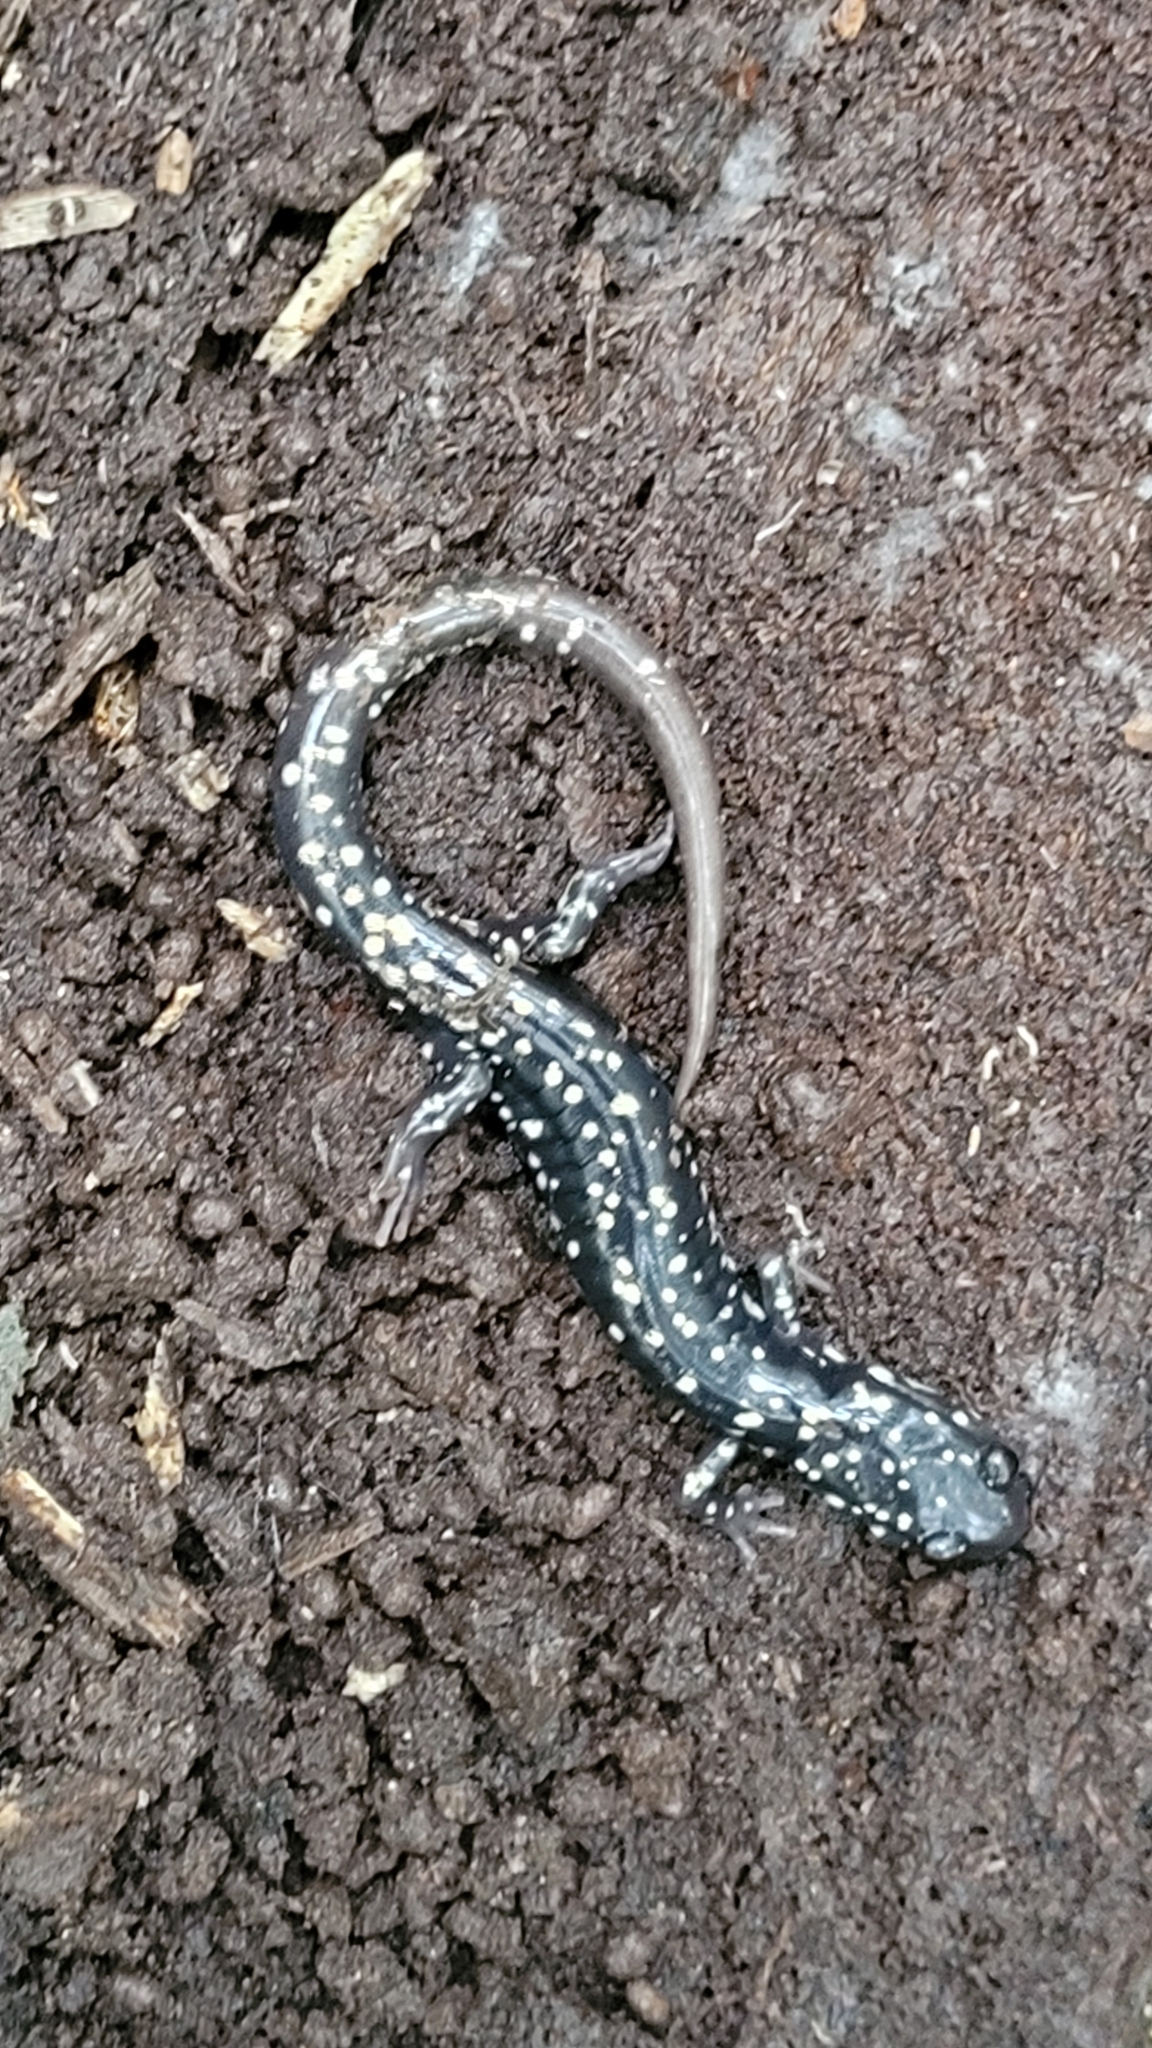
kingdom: Animalia
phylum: Chordata
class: Amphibia
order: Caudata
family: Plethodontidae
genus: Plethodon
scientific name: Plethodon glutinosus
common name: Northern slimy salamander
